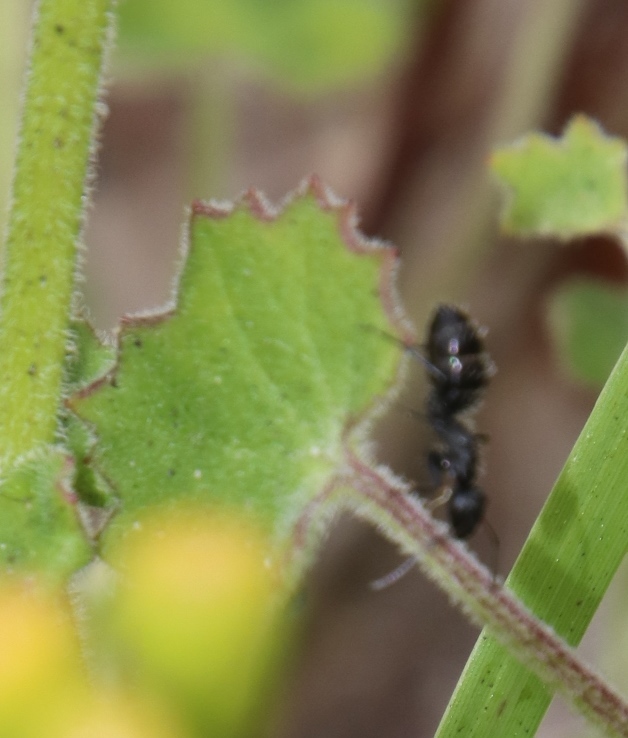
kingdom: Animalia
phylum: Arthropoda
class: Insecta
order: Hymenoptera
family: Formicidae
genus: Camponotus
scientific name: Camponotus niveosetosus
